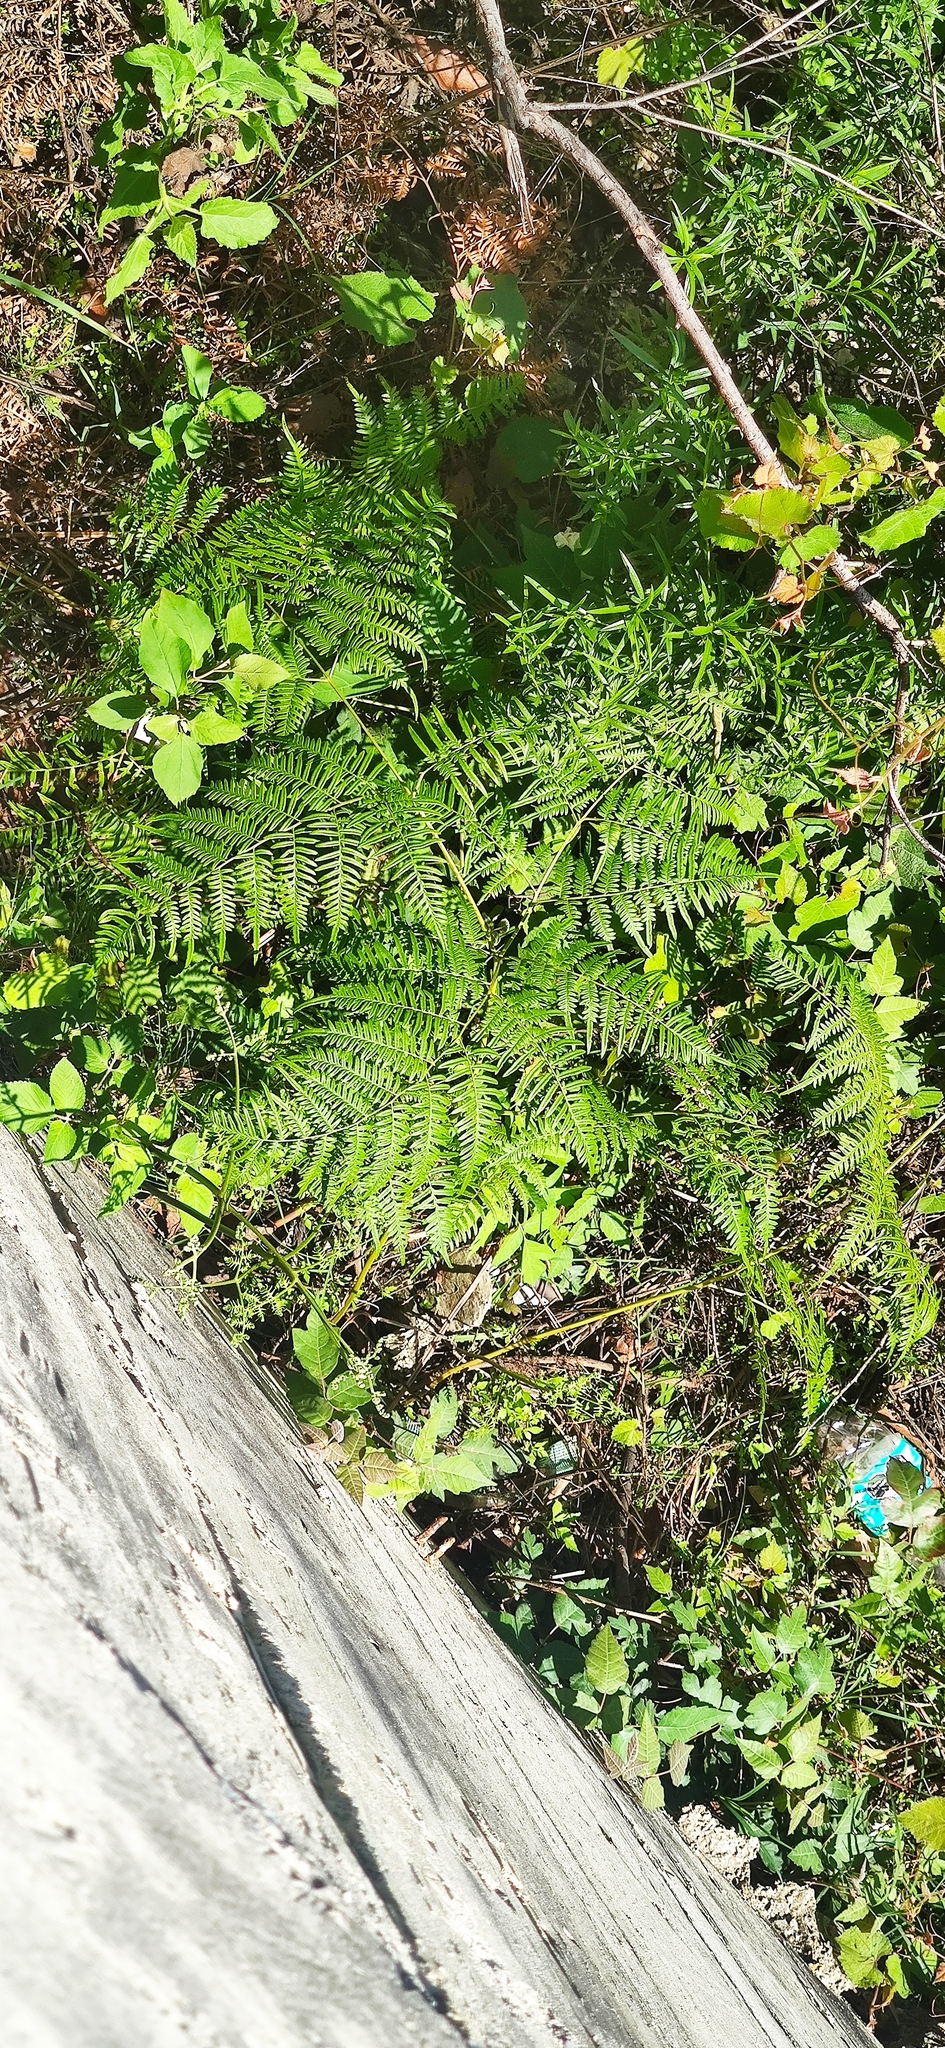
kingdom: Plantae
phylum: Tracheophyta
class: Polypodiopsida
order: Polypodiales
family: Dennstaedtiaceae
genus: Pteridium
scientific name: Pteridium caudatum
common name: Southern bracken fern
